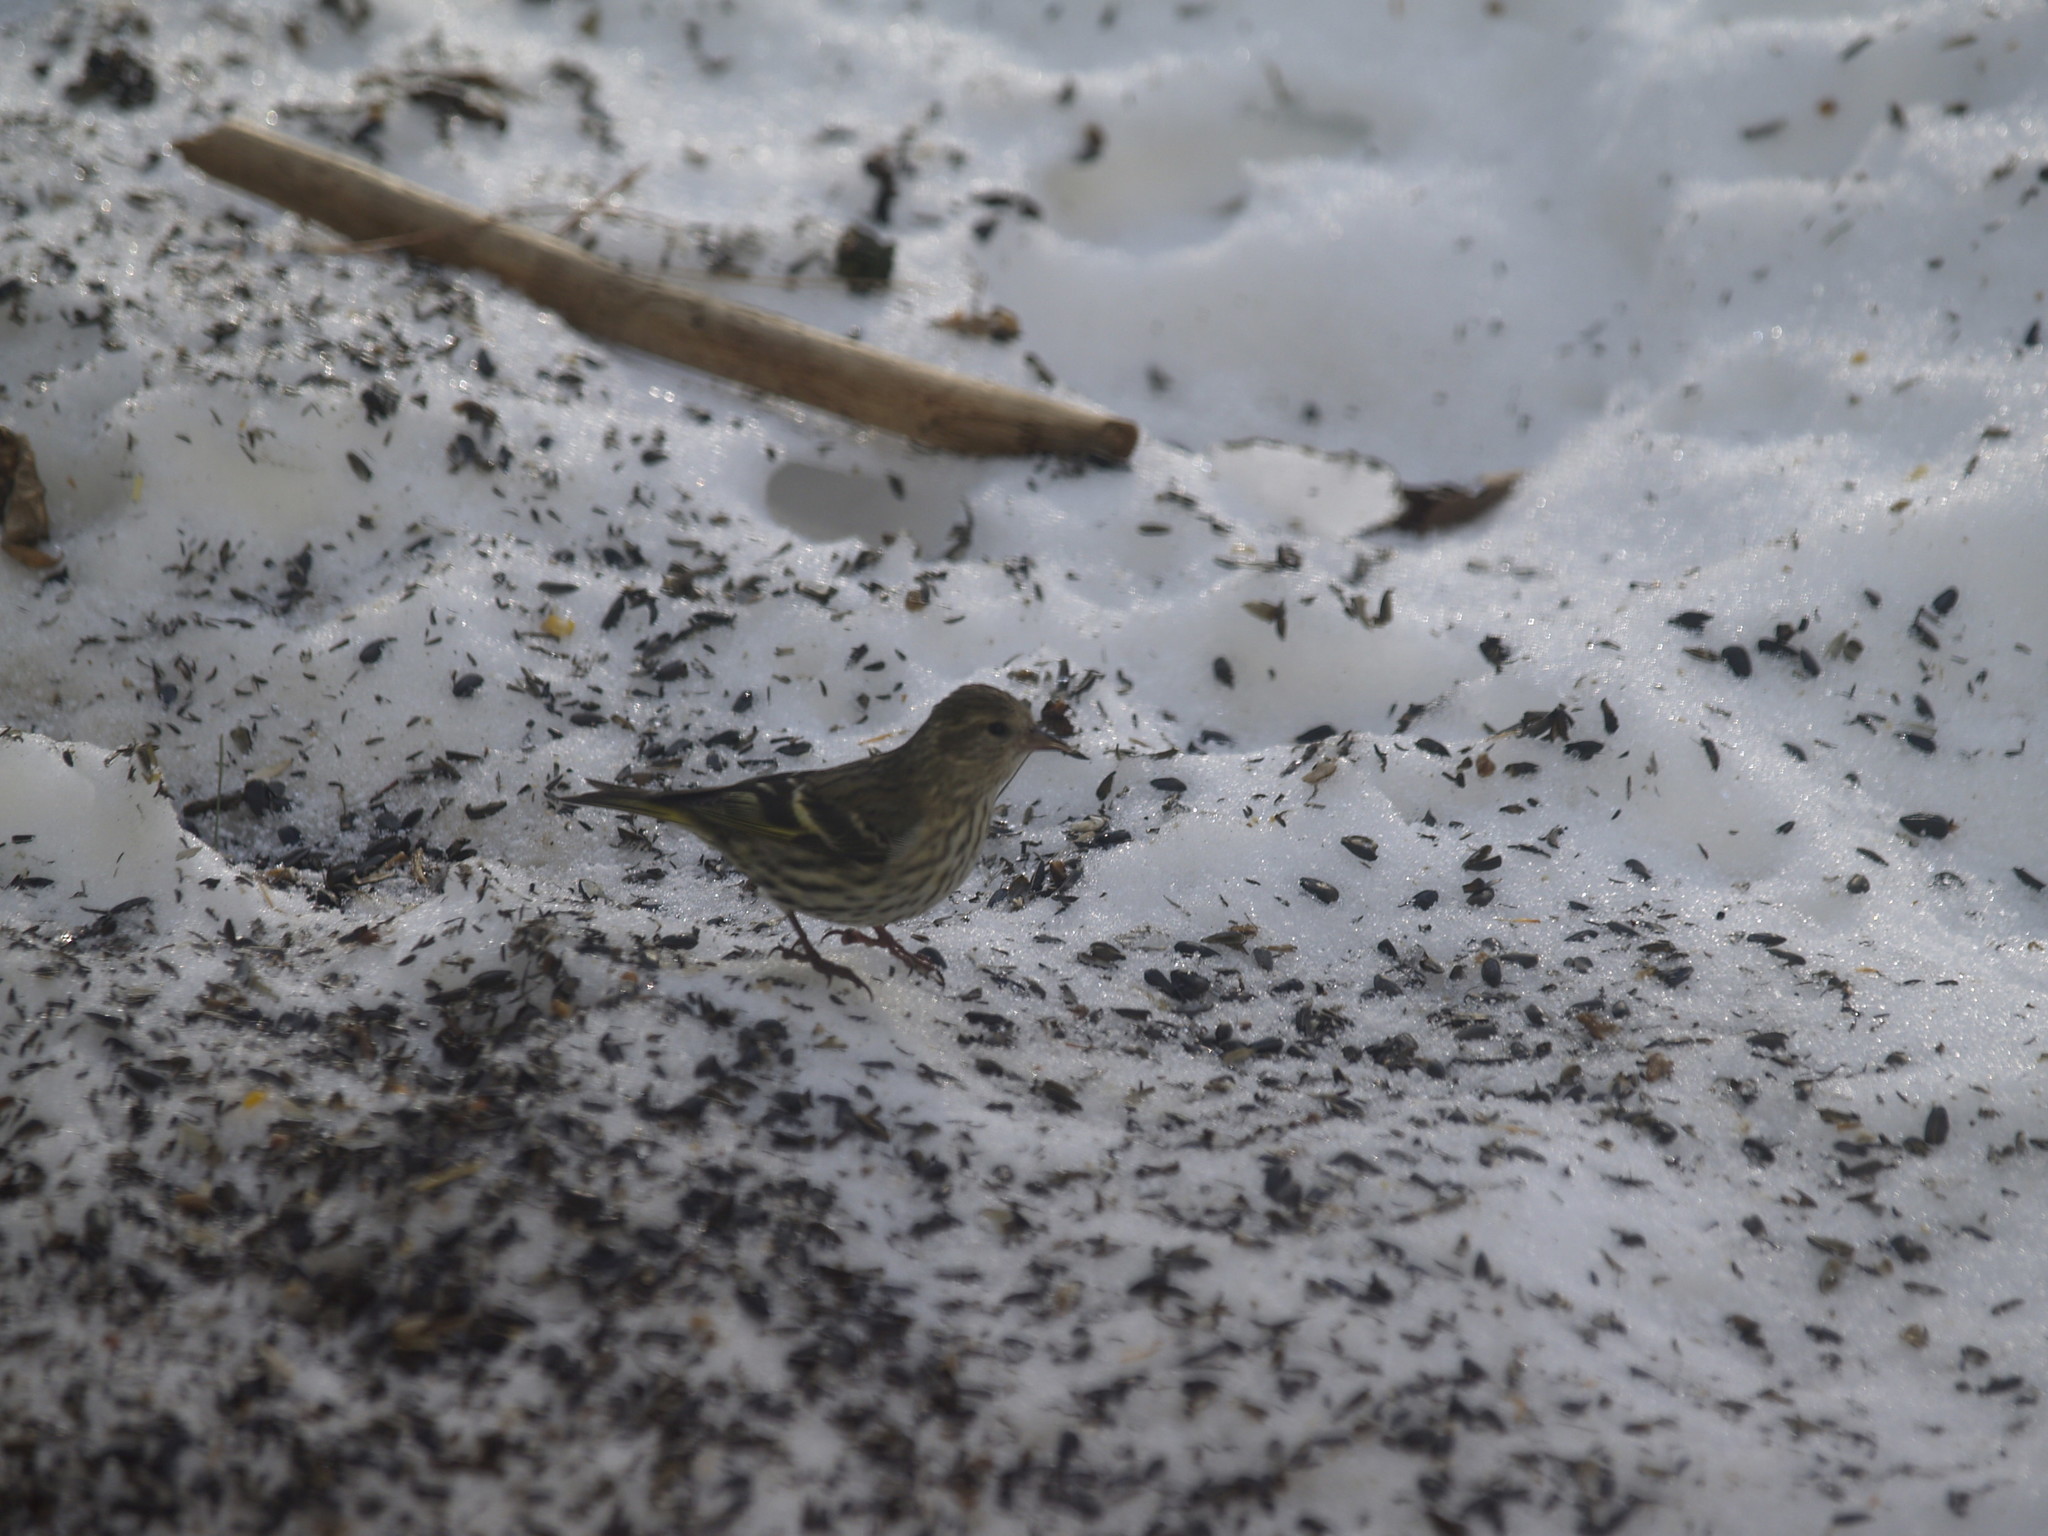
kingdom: Animalia
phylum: Chordata
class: Aves
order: Passeriformes
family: Fringillidae
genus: Spinus
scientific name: Spinus pinus
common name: Pine siskin
